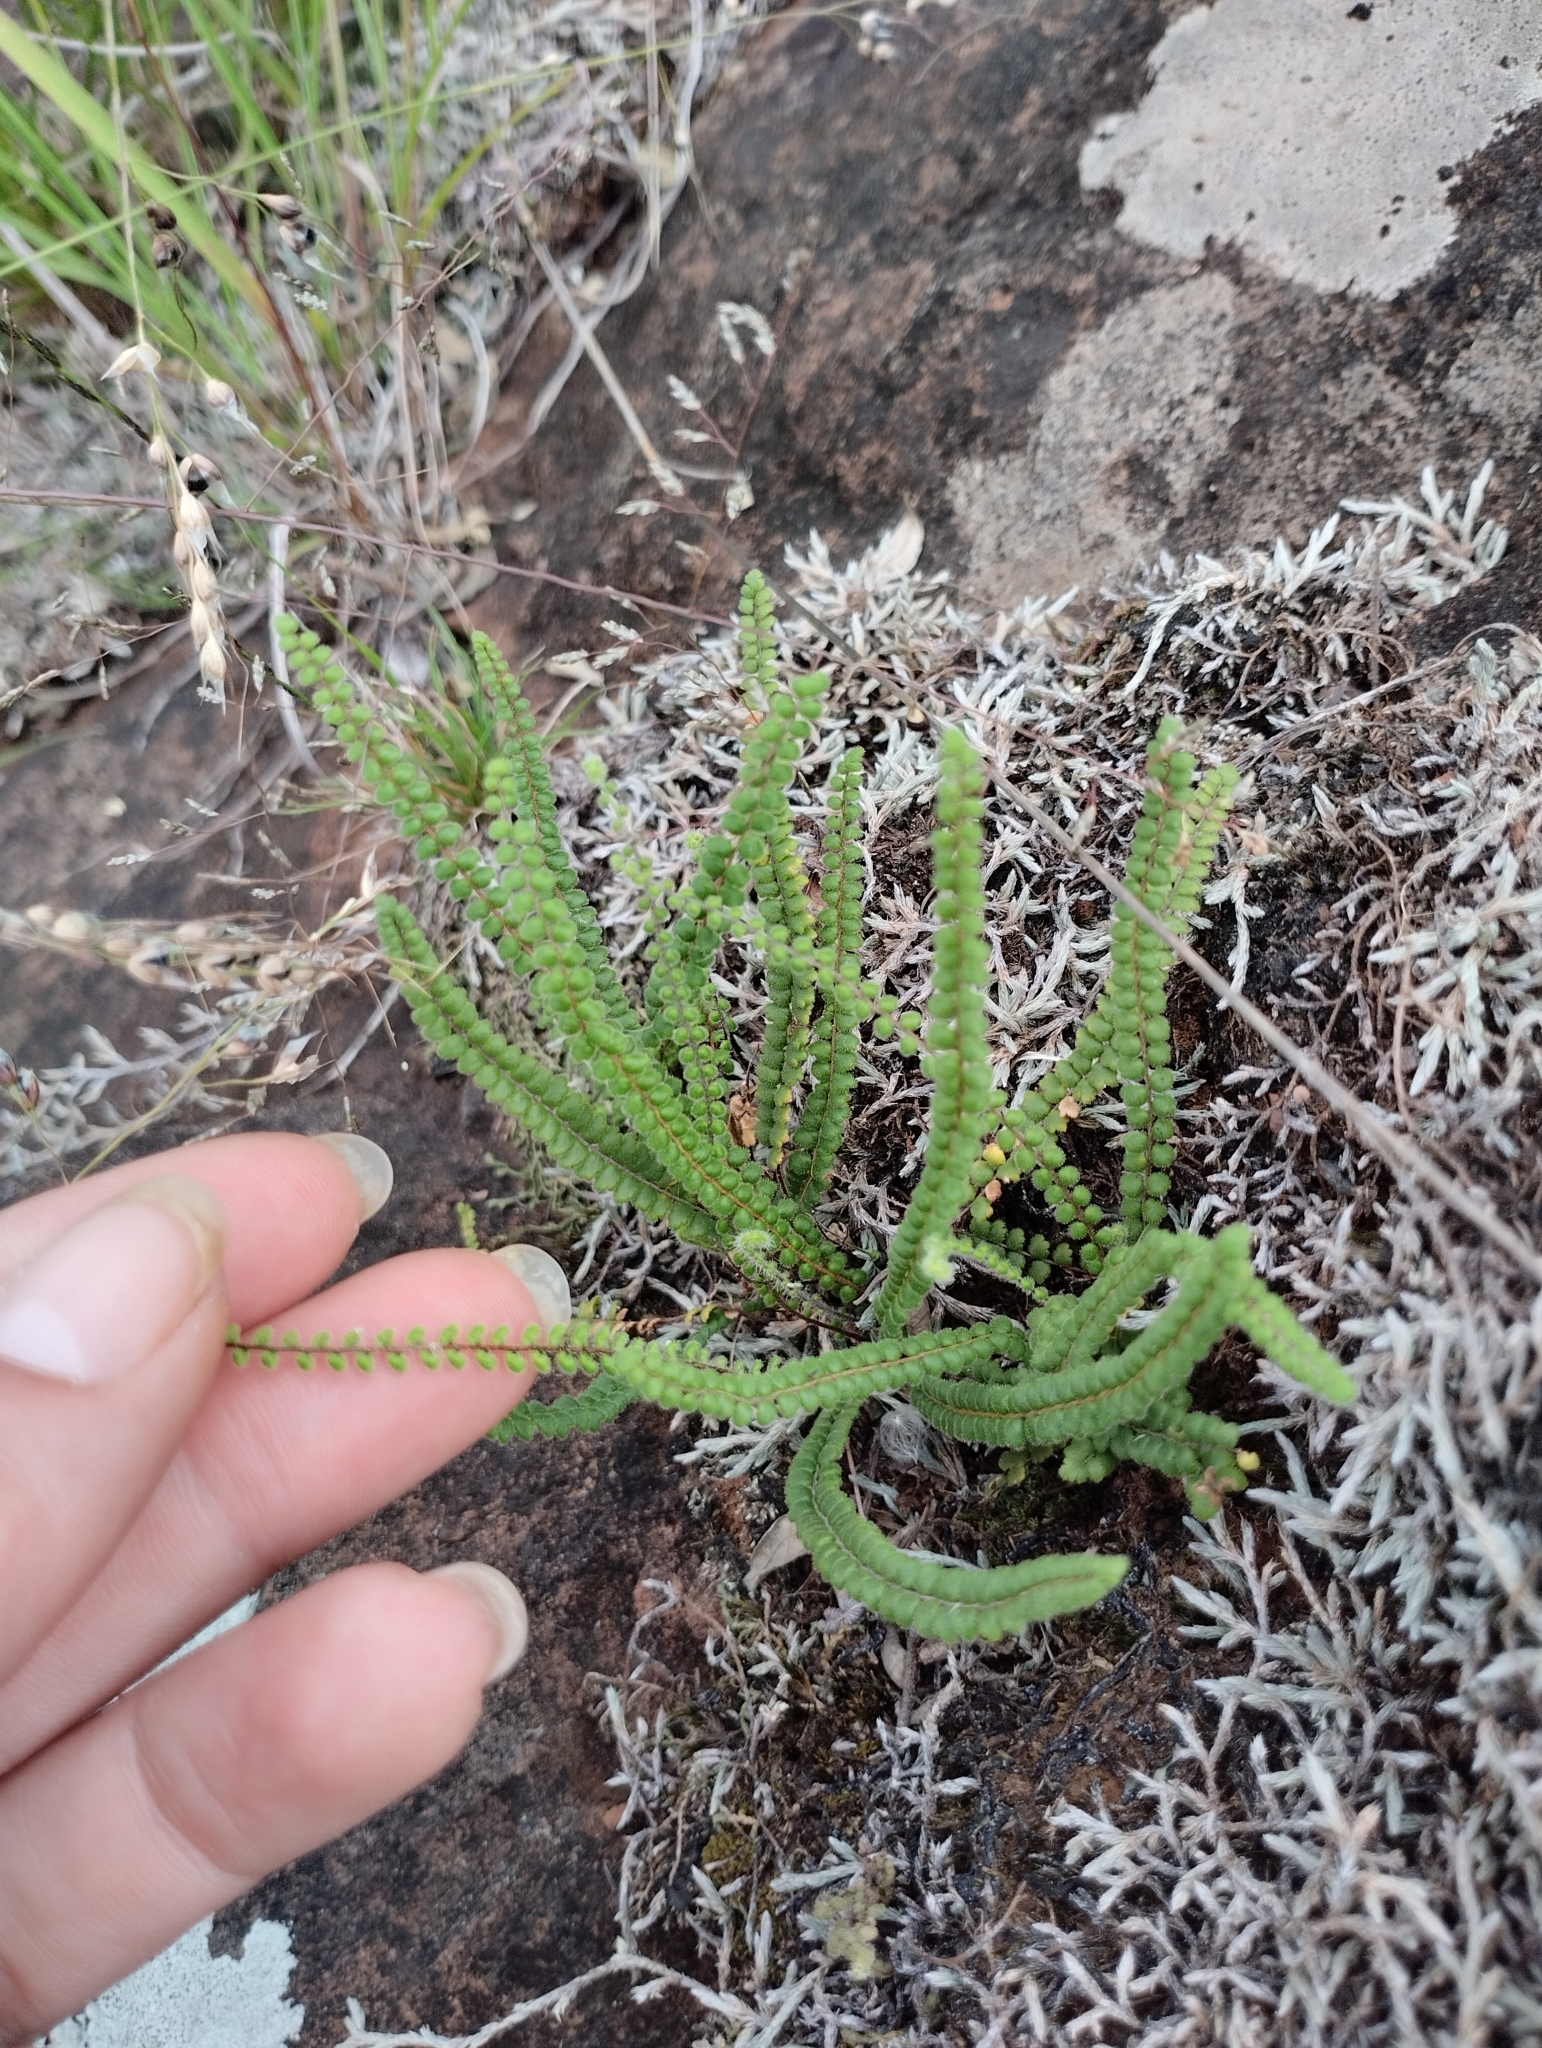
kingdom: Plantae
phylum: Tracheophyta
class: Polypodiopsida
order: Polypodiales
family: Pteridaceae
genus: Cheilanthes
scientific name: Cheilanthes micropteris
